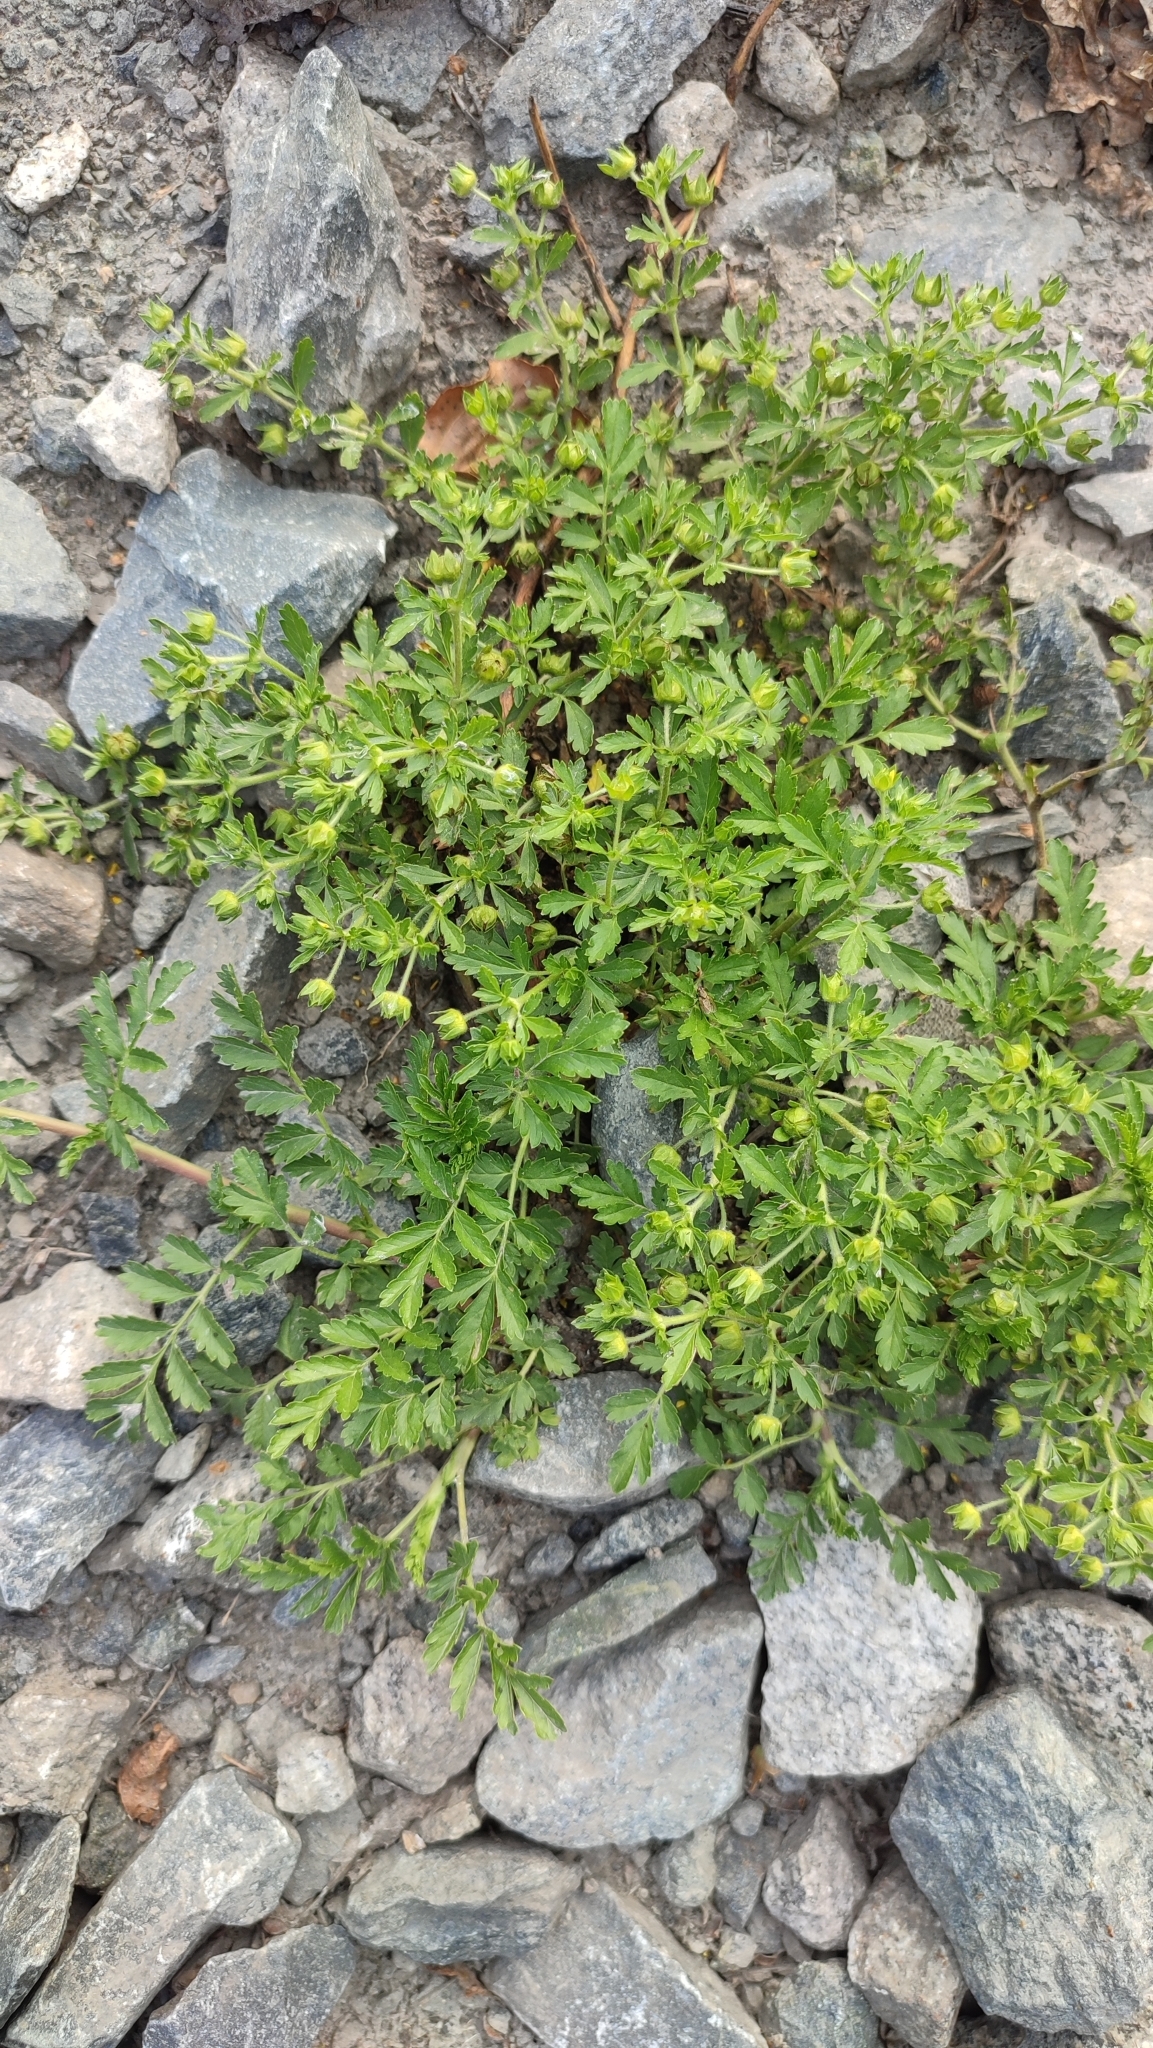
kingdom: Plantae
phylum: Tracheophyta
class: Magnoliopsida
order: Rosales
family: Rosaceae
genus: Potentilla
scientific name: Potentilla supina
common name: Prostrate cinquefoil
